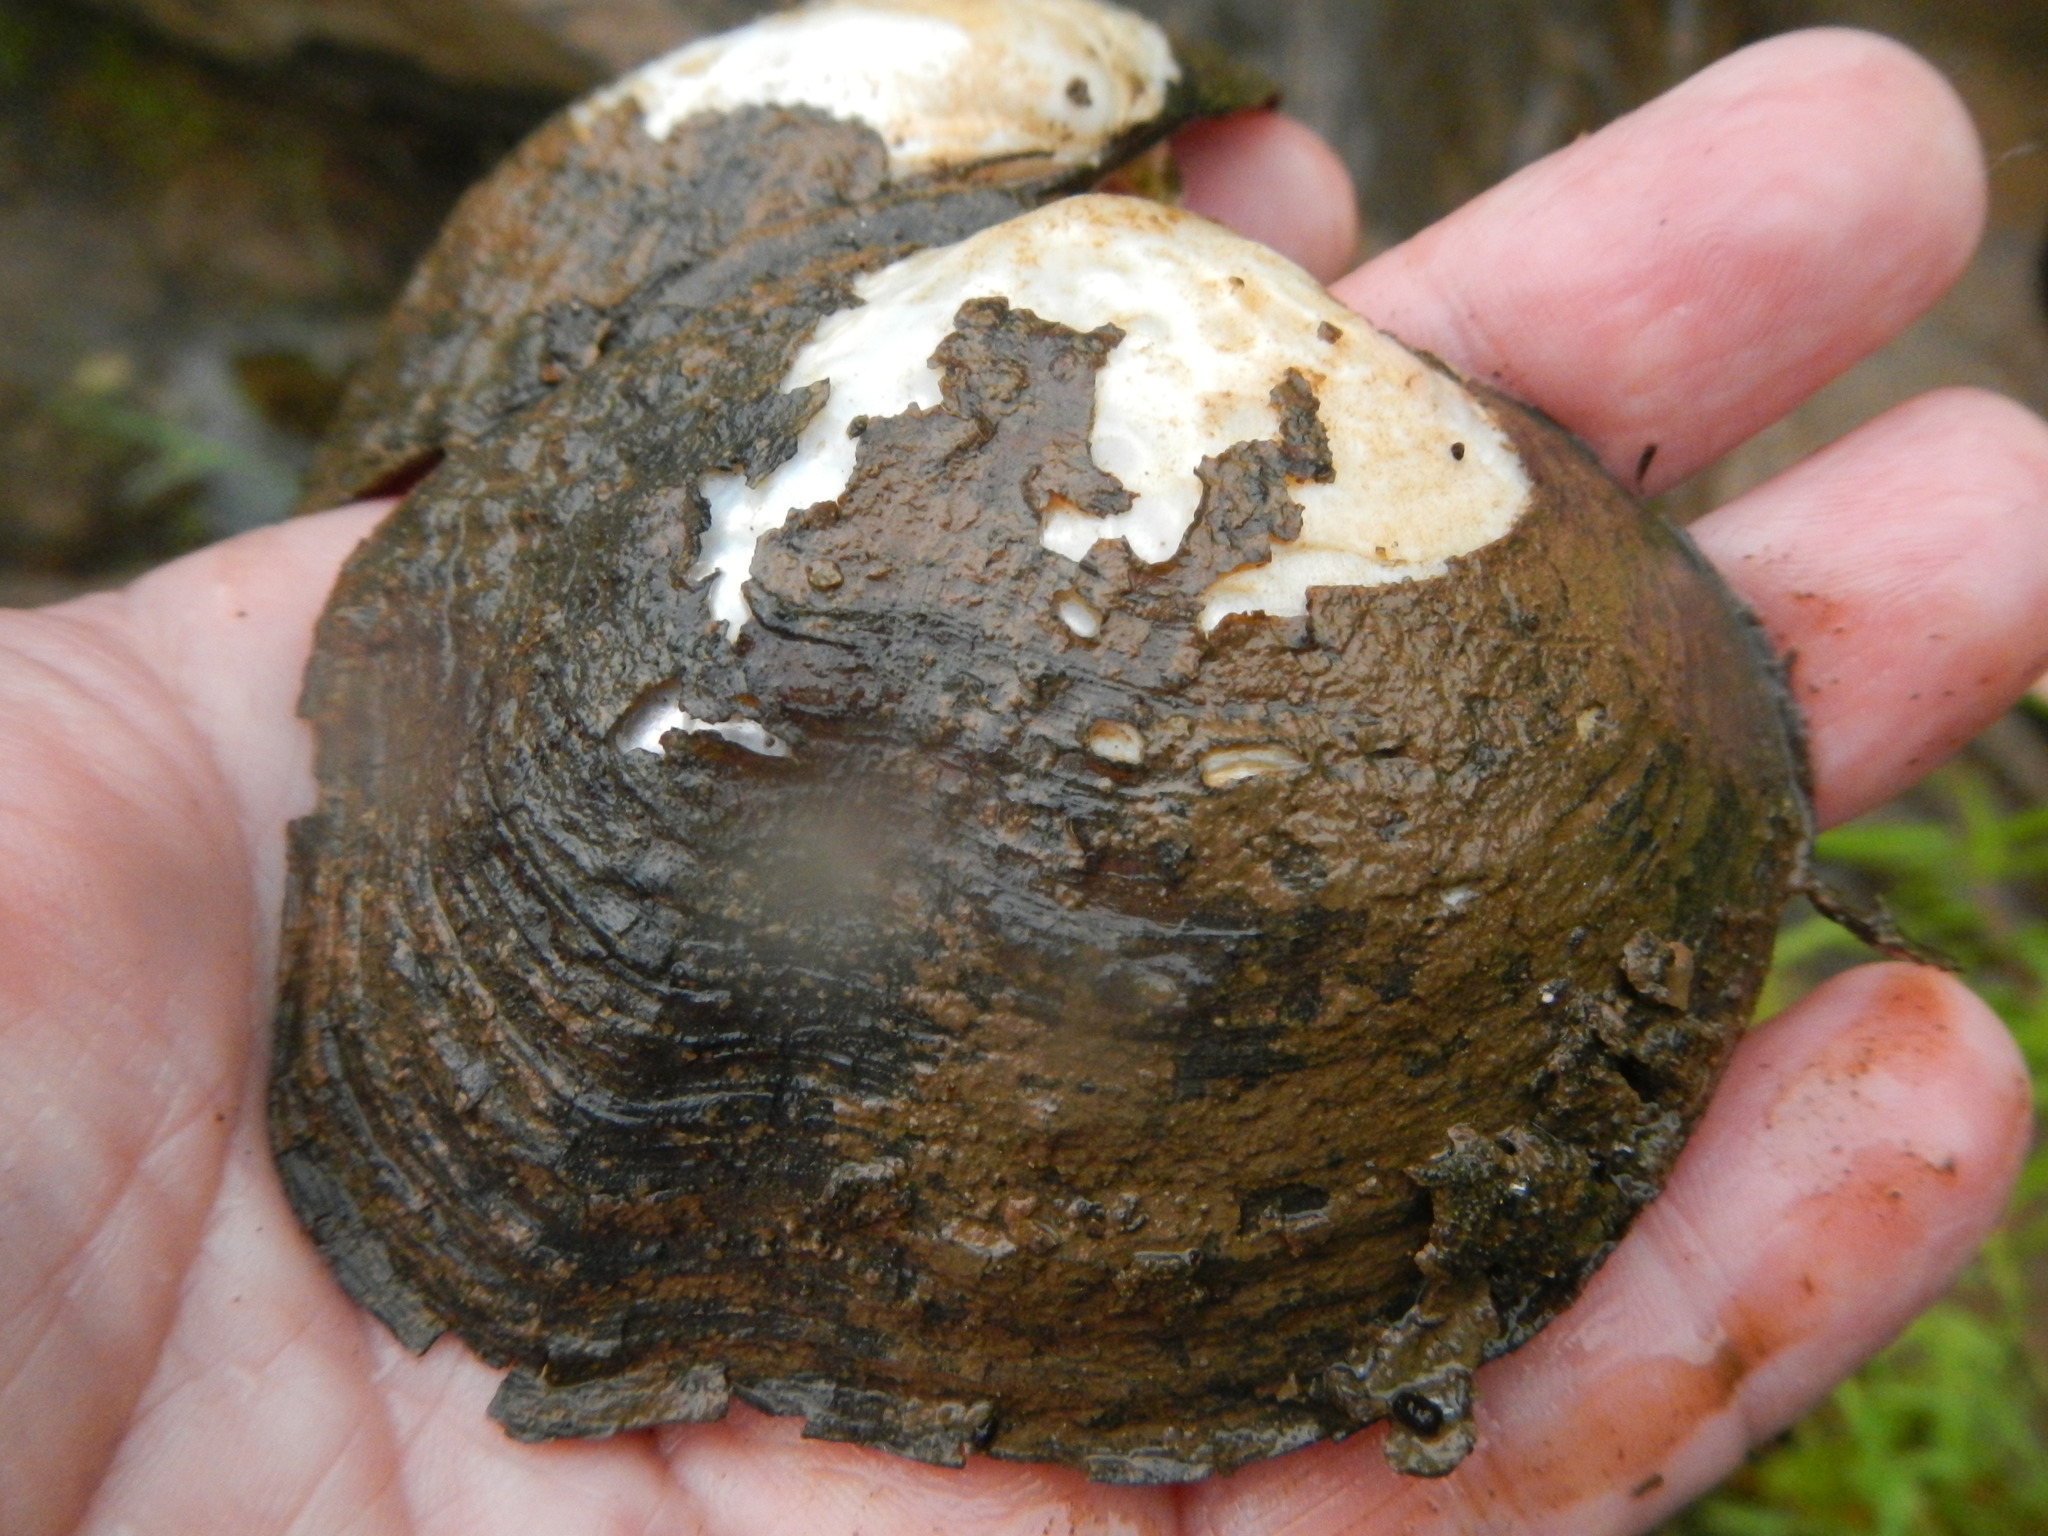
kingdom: Animalia
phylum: Mollusca
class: Bivalvia
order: Unionida
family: Unionidae
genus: Quadrula
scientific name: Quadrula quadrula
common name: Mapleleaf
